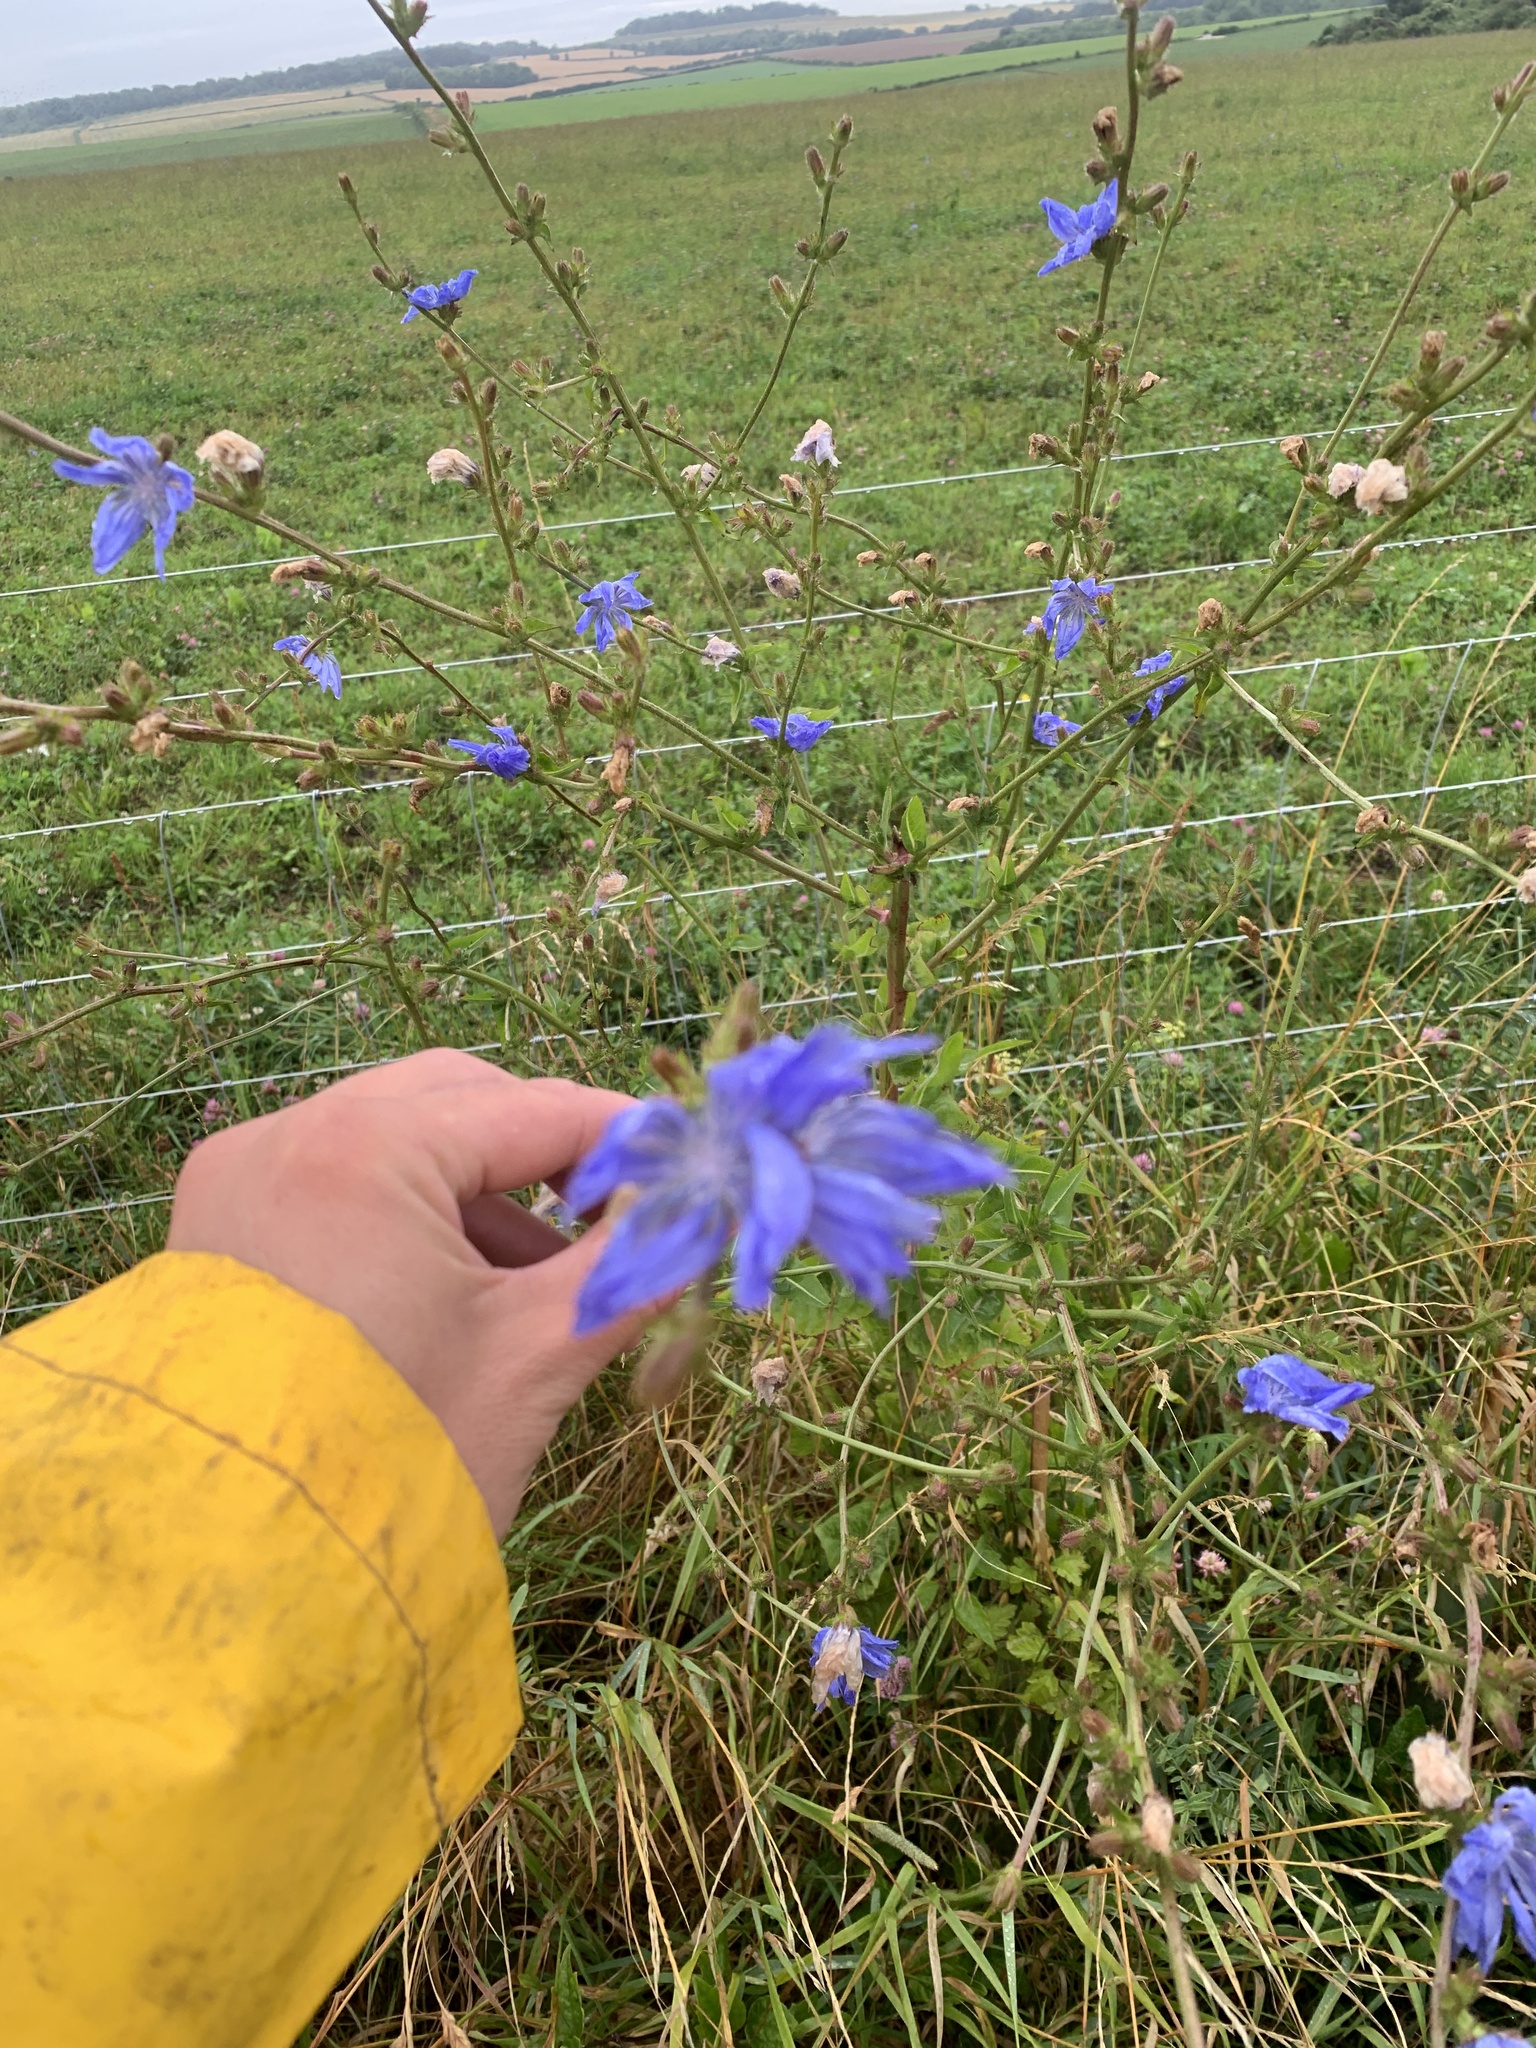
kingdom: Plantae
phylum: Tracheophyta
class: Magnoliopsida
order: Asterales
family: Asteraceae
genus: Cichorium
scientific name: Cichorium intybus
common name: Chicory
